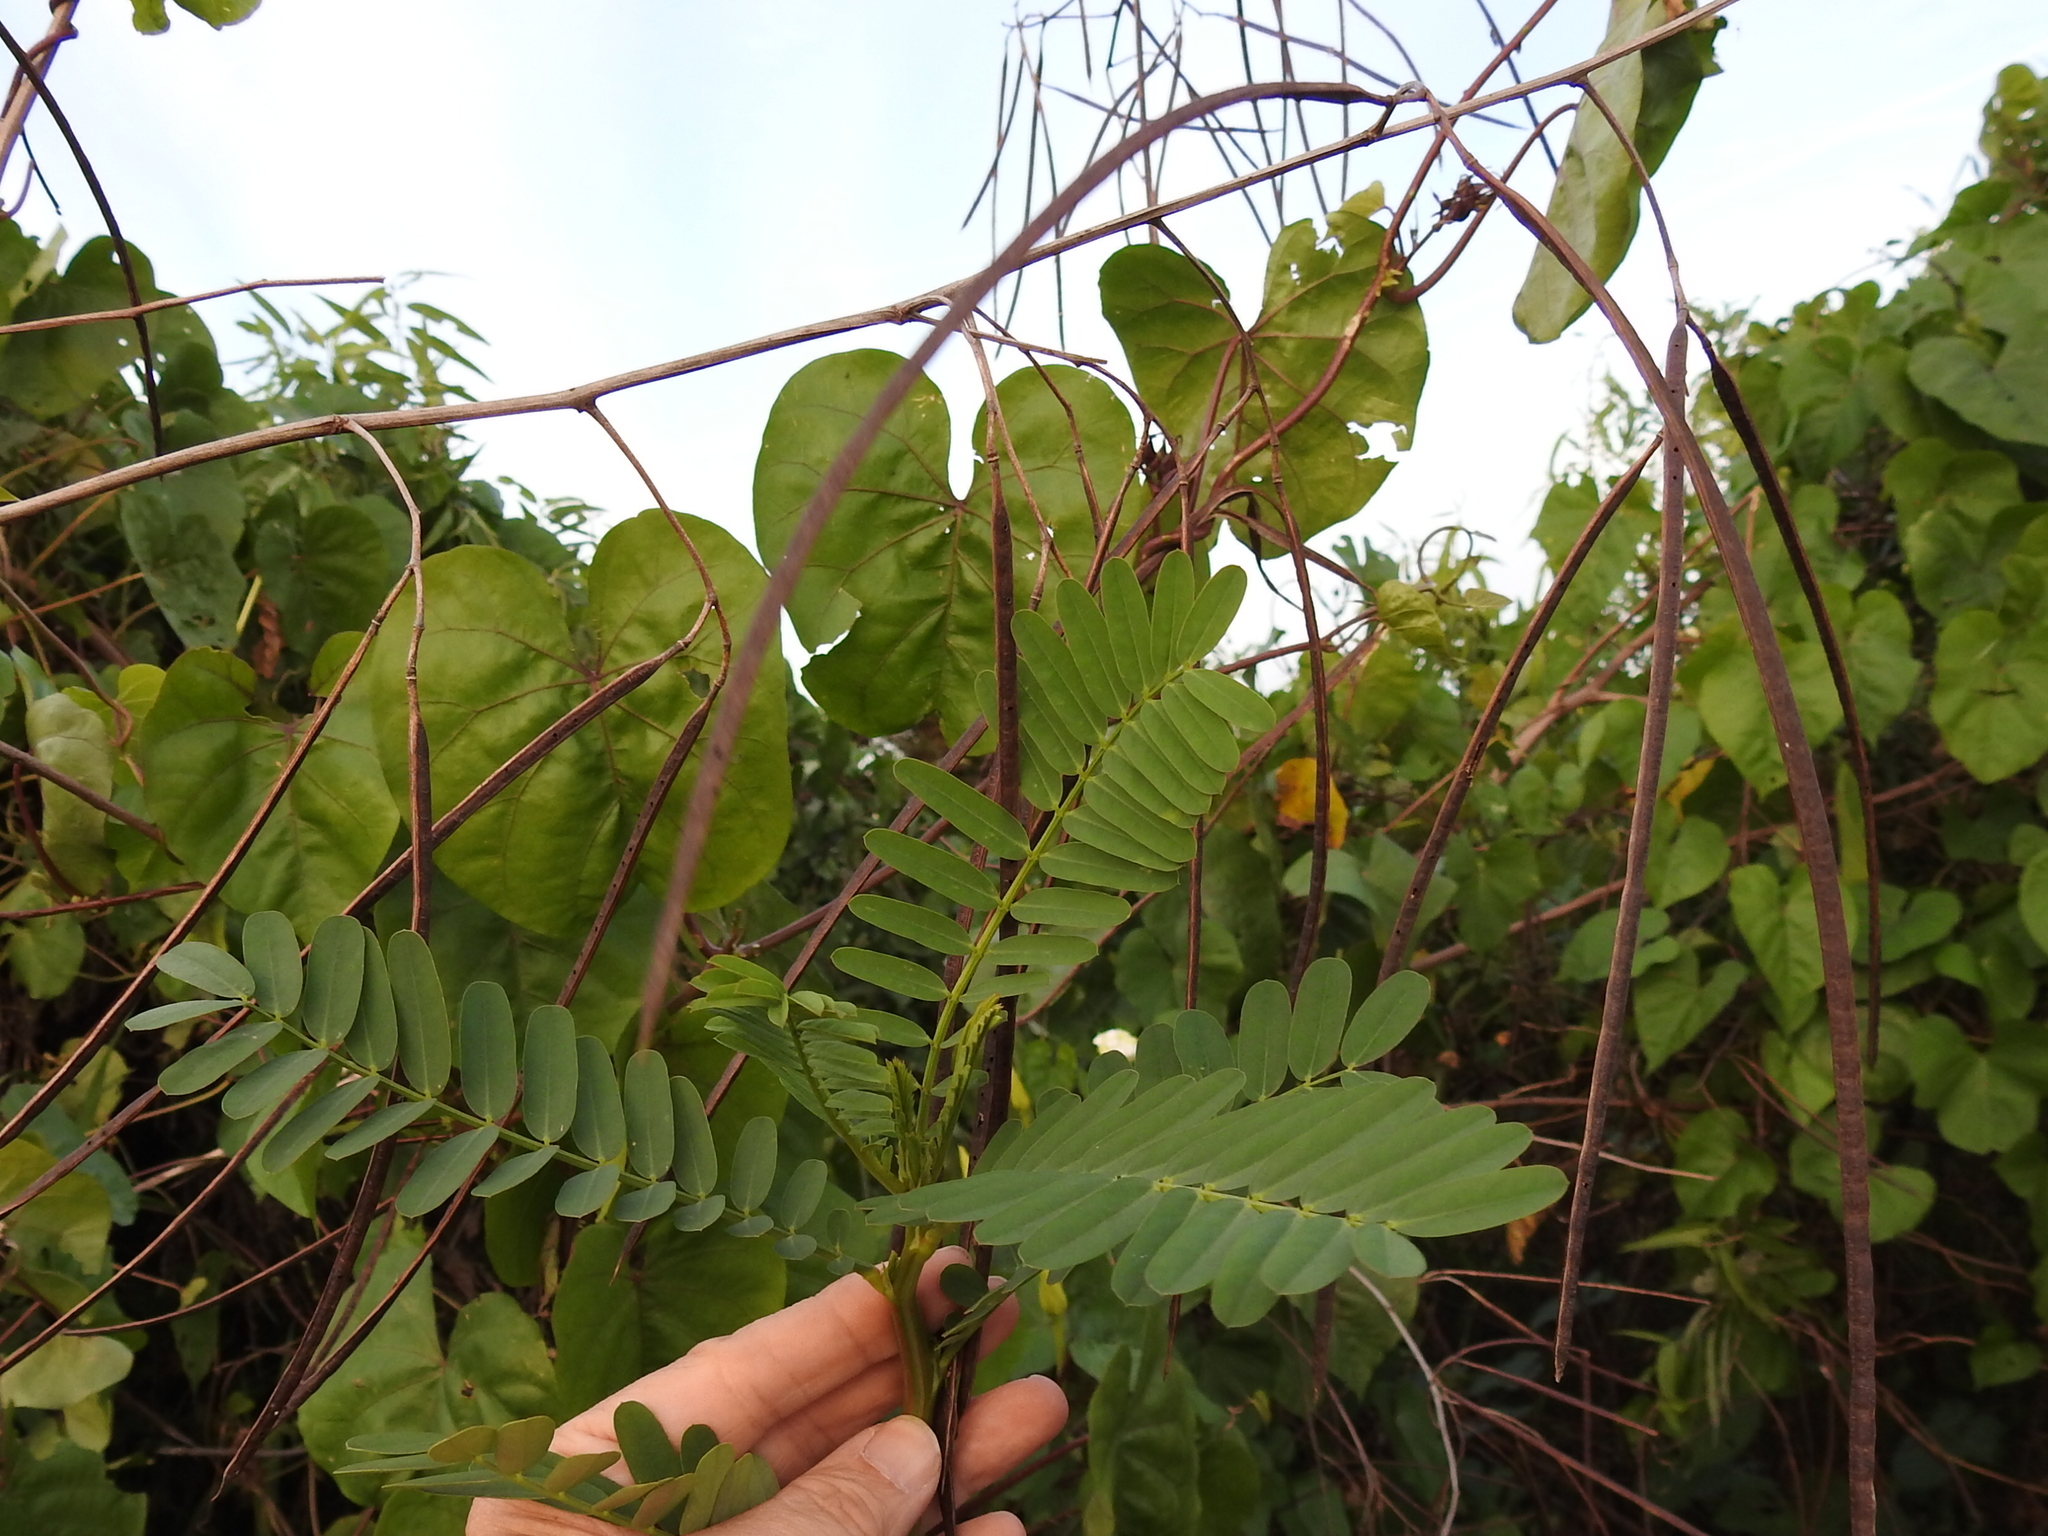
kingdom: Plantae
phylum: Tracheophyta
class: Magnoliopsida
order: Fabales
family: Fabaceae
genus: Sesbania
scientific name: Sesbania herbacea
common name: Bigpod sesbania
